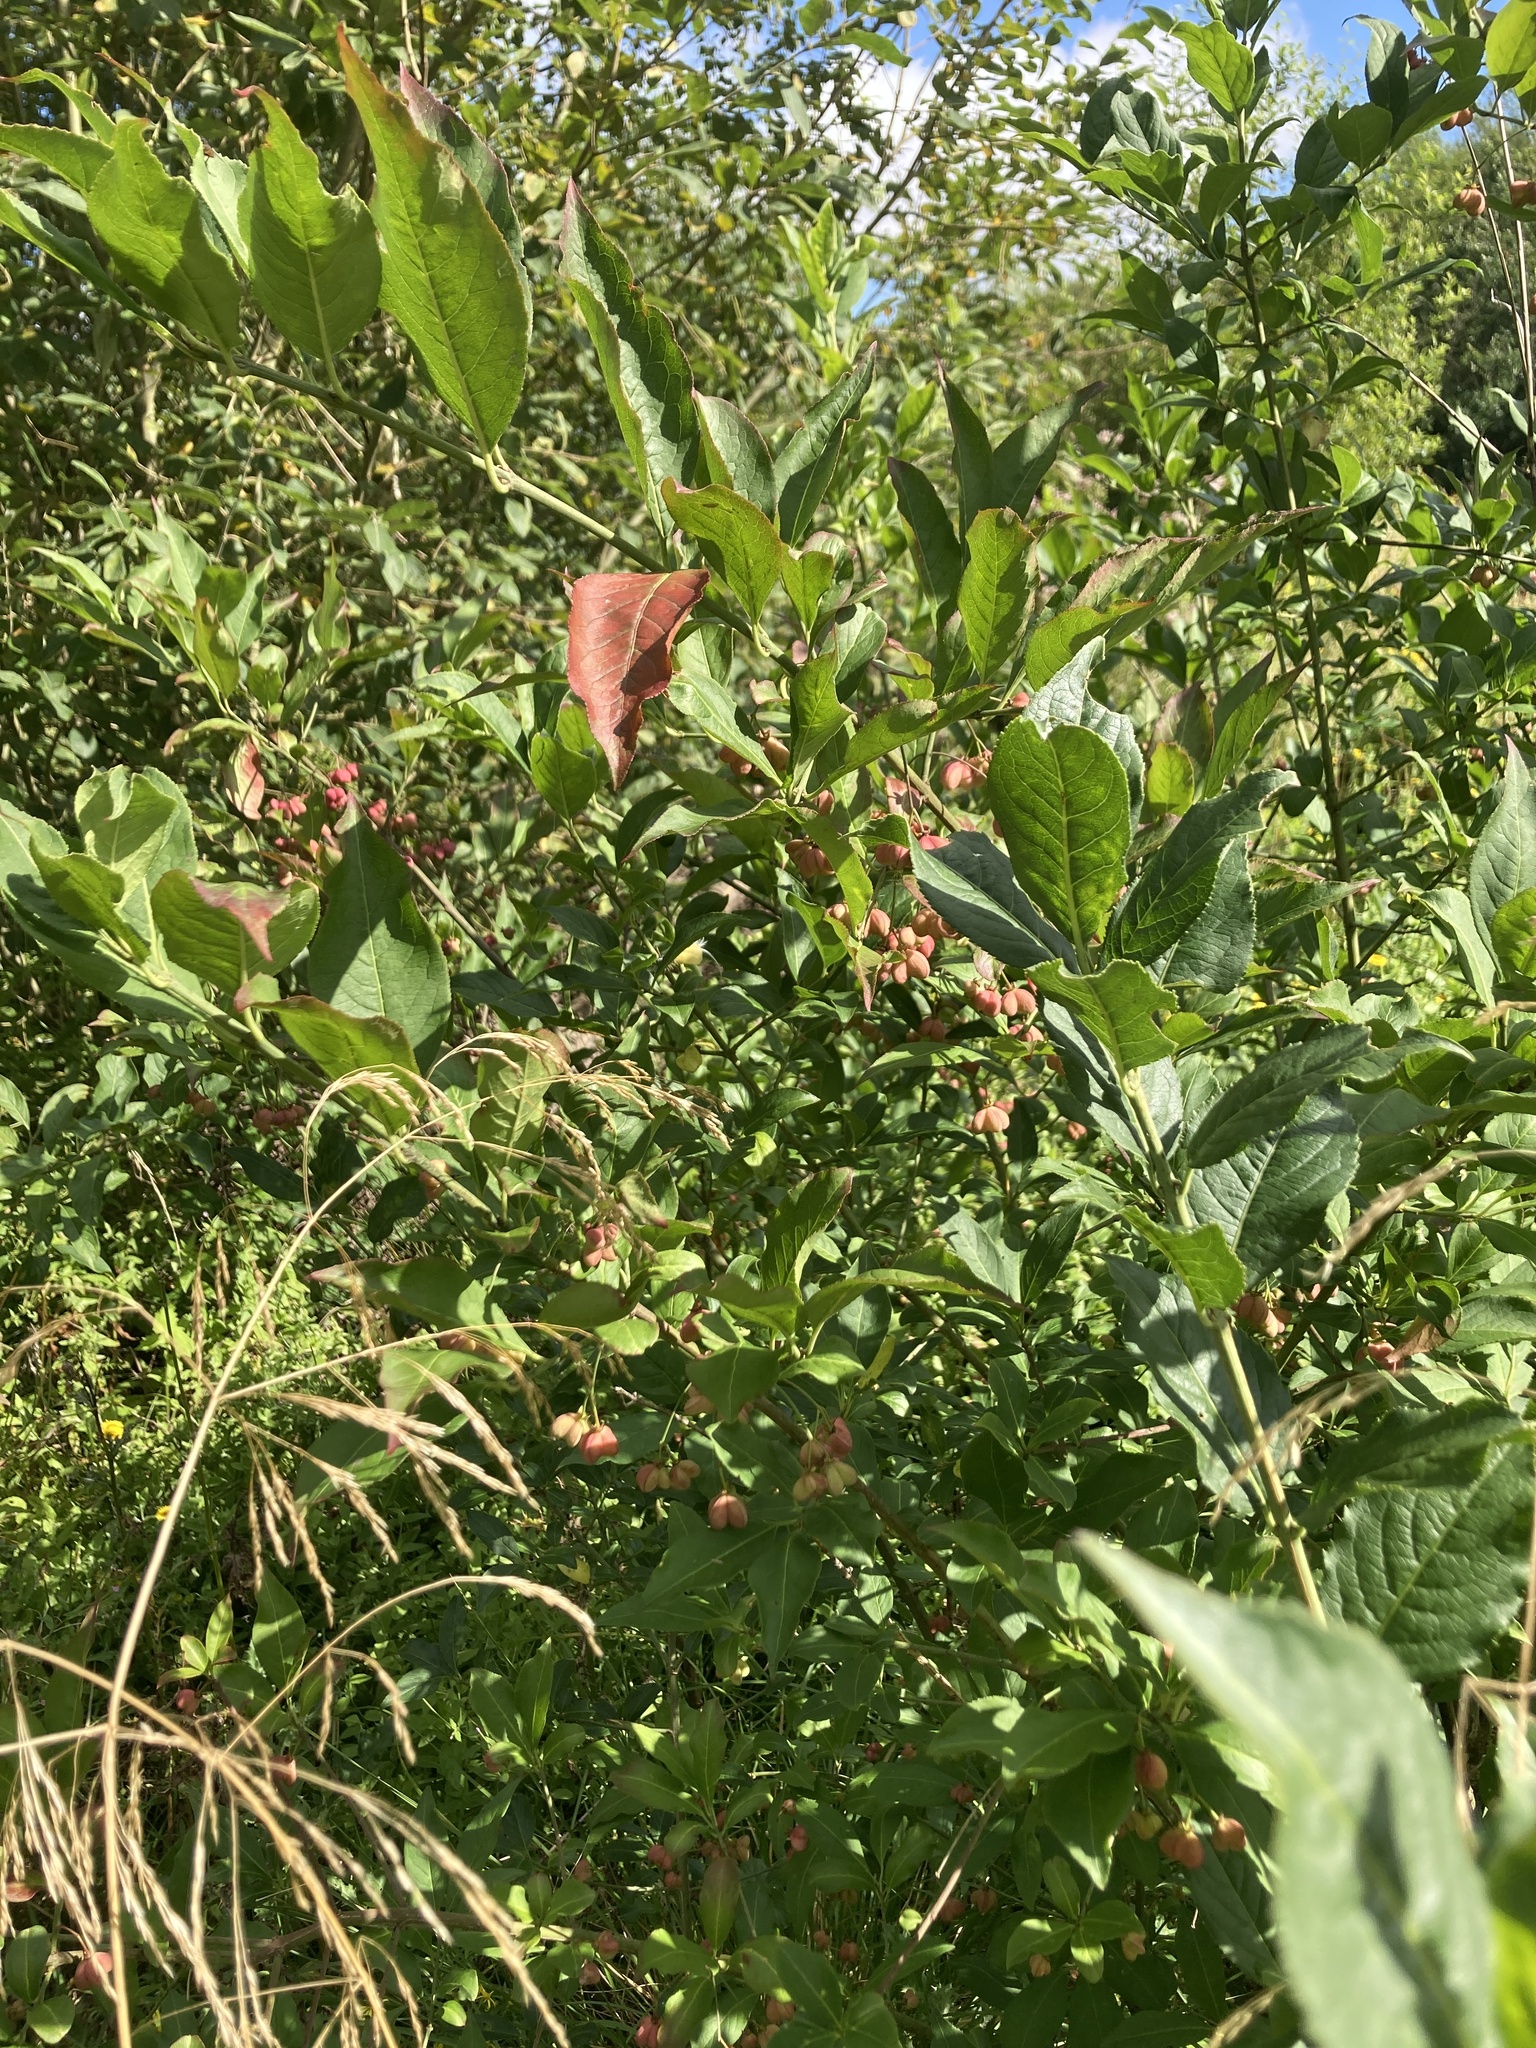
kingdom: Plantae
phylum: Tracheophyta
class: Magnoliopsida
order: Celastrales
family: Celastraceae
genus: Euonymus
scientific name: Euonymus europaeus
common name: Spindle
